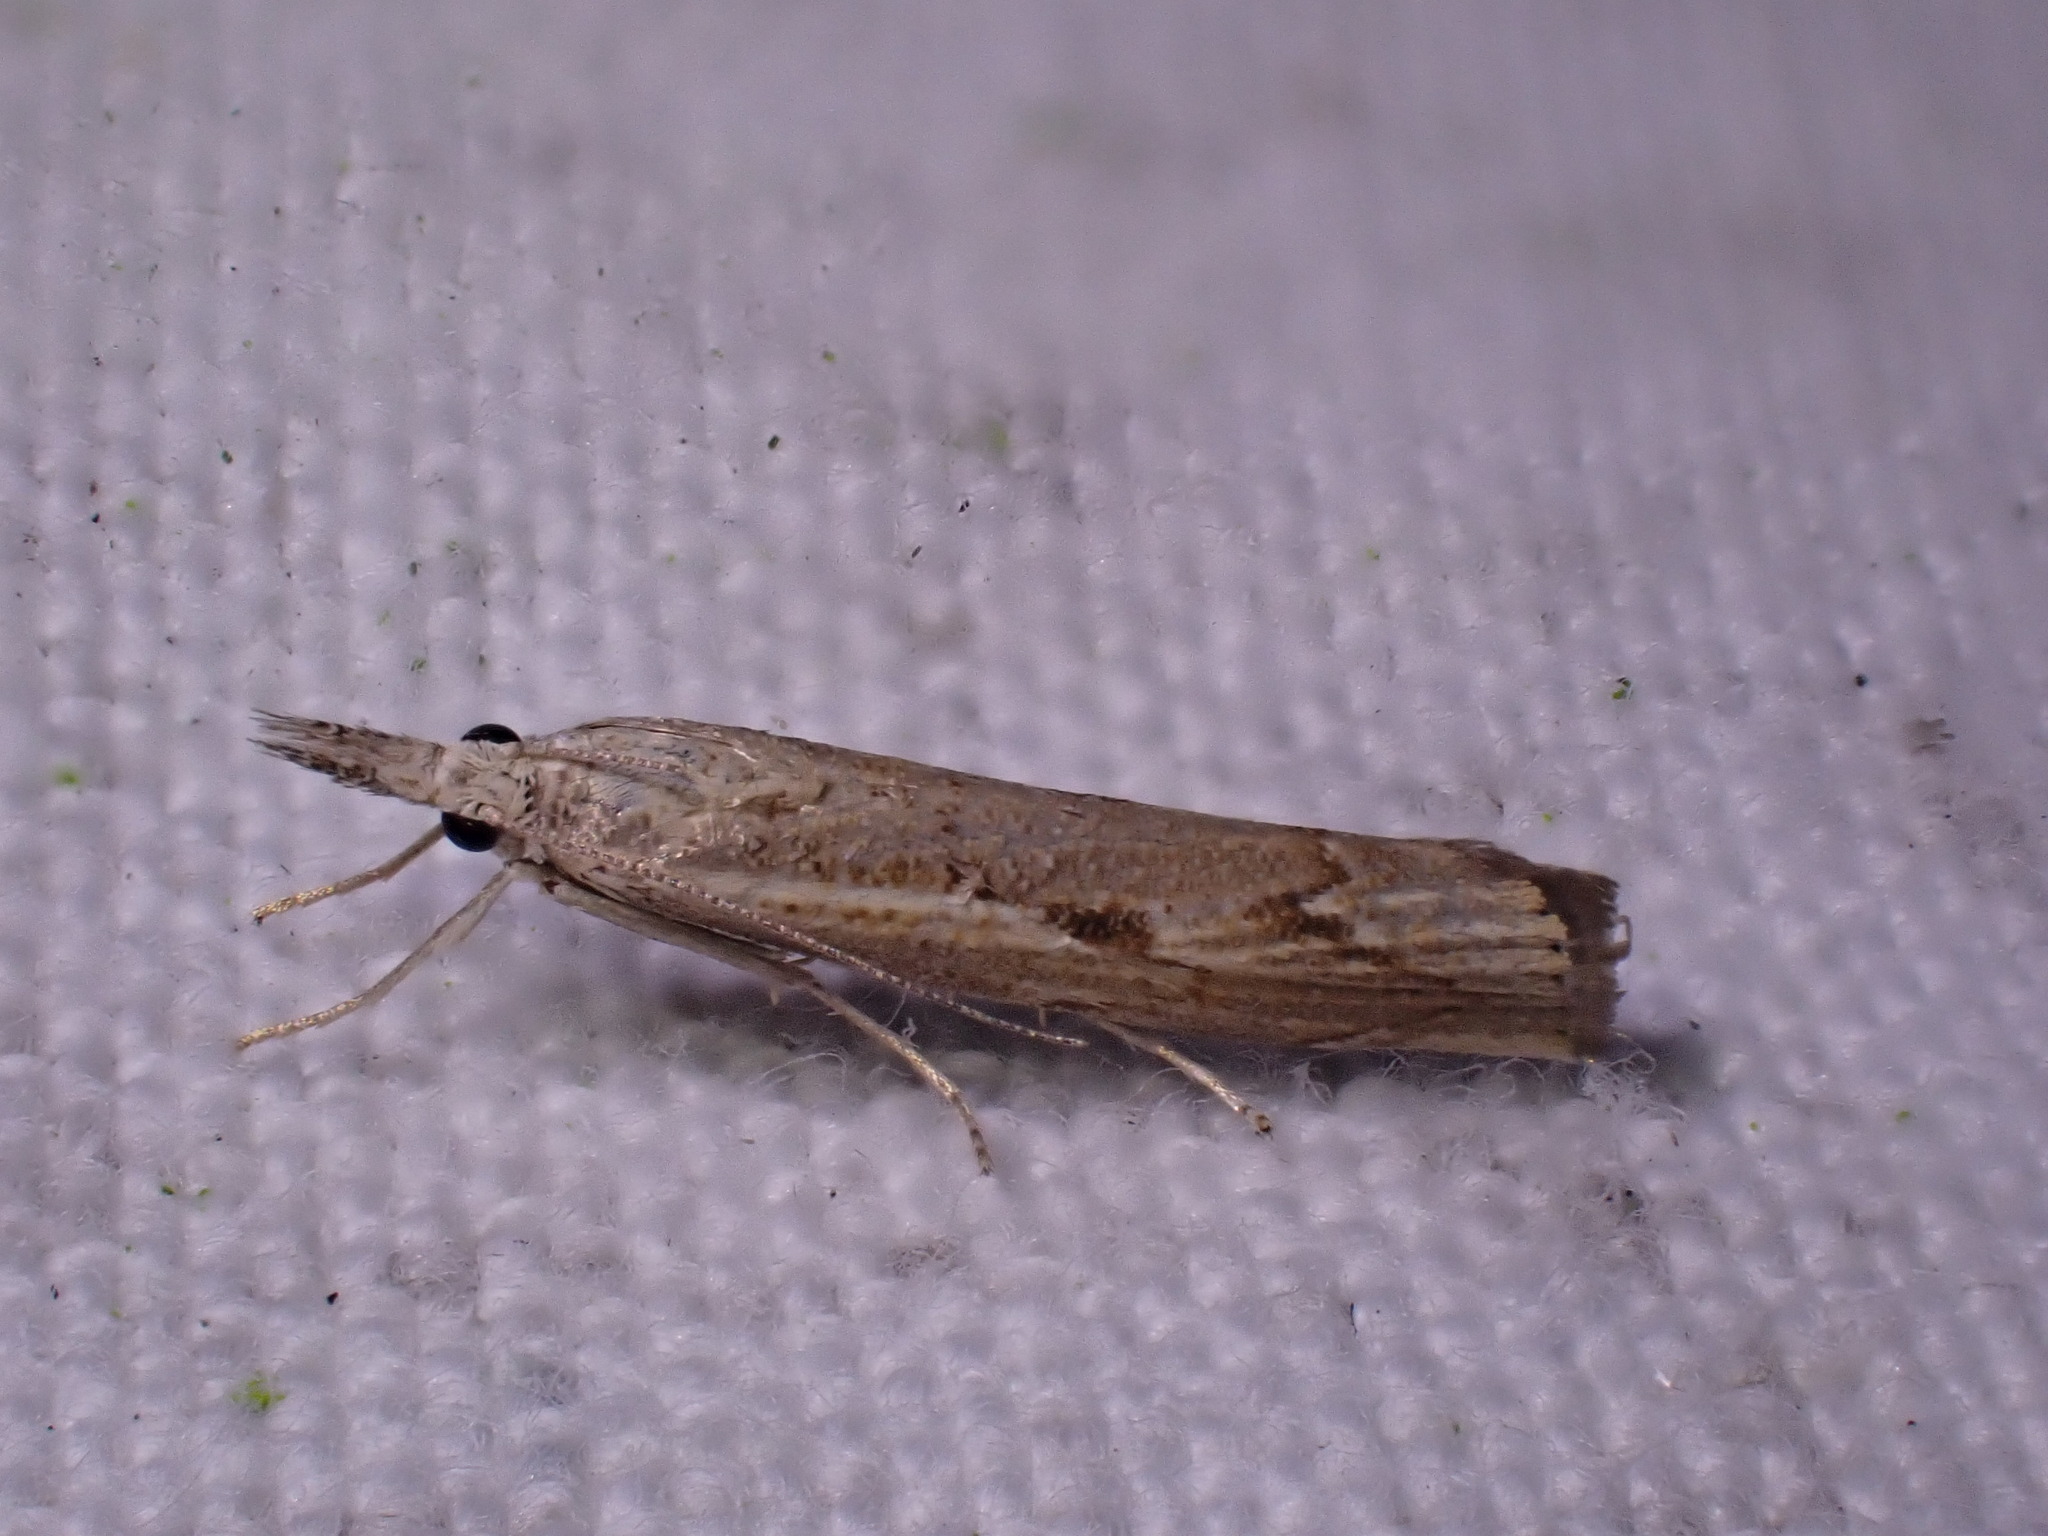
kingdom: Animalia
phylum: Arthropoda
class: Insecta
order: Lepidoptera
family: Crambidae
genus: Agriphila
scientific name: Agriphila geniculea
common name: Elbow-stripe grass-veneer
